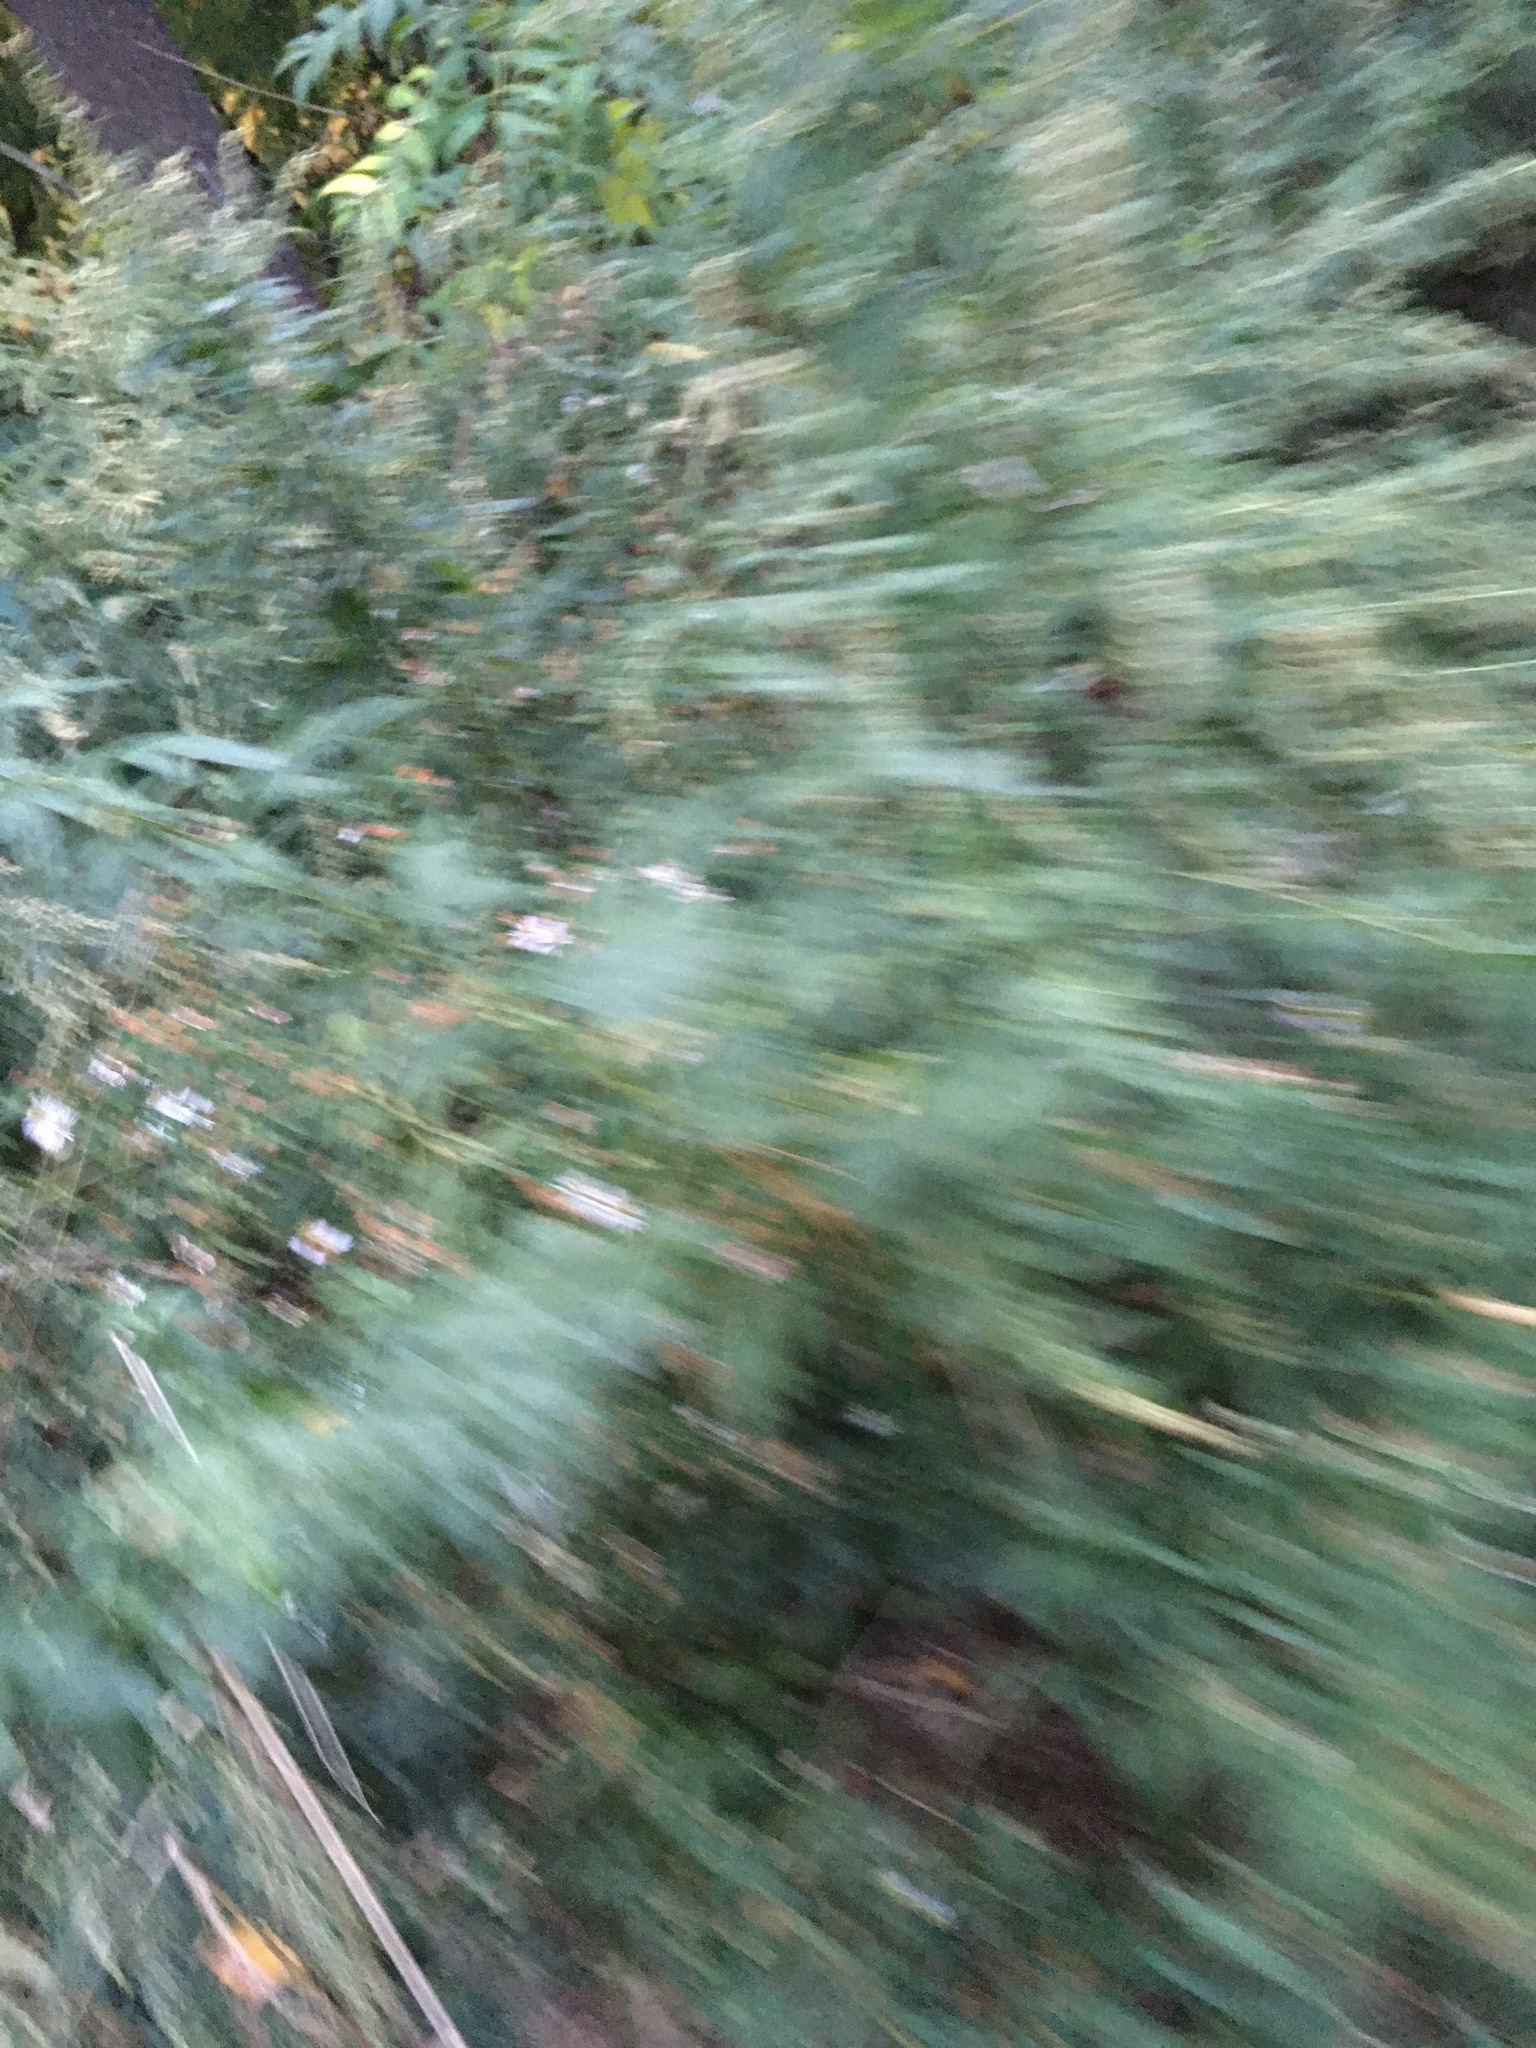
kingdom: Plantae
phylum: Tracheophyta
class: Magnoliopsida
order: Asterales
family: Asteraceae
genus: Artemisia
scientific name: Artemisia vulgaris
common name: Mugwort
